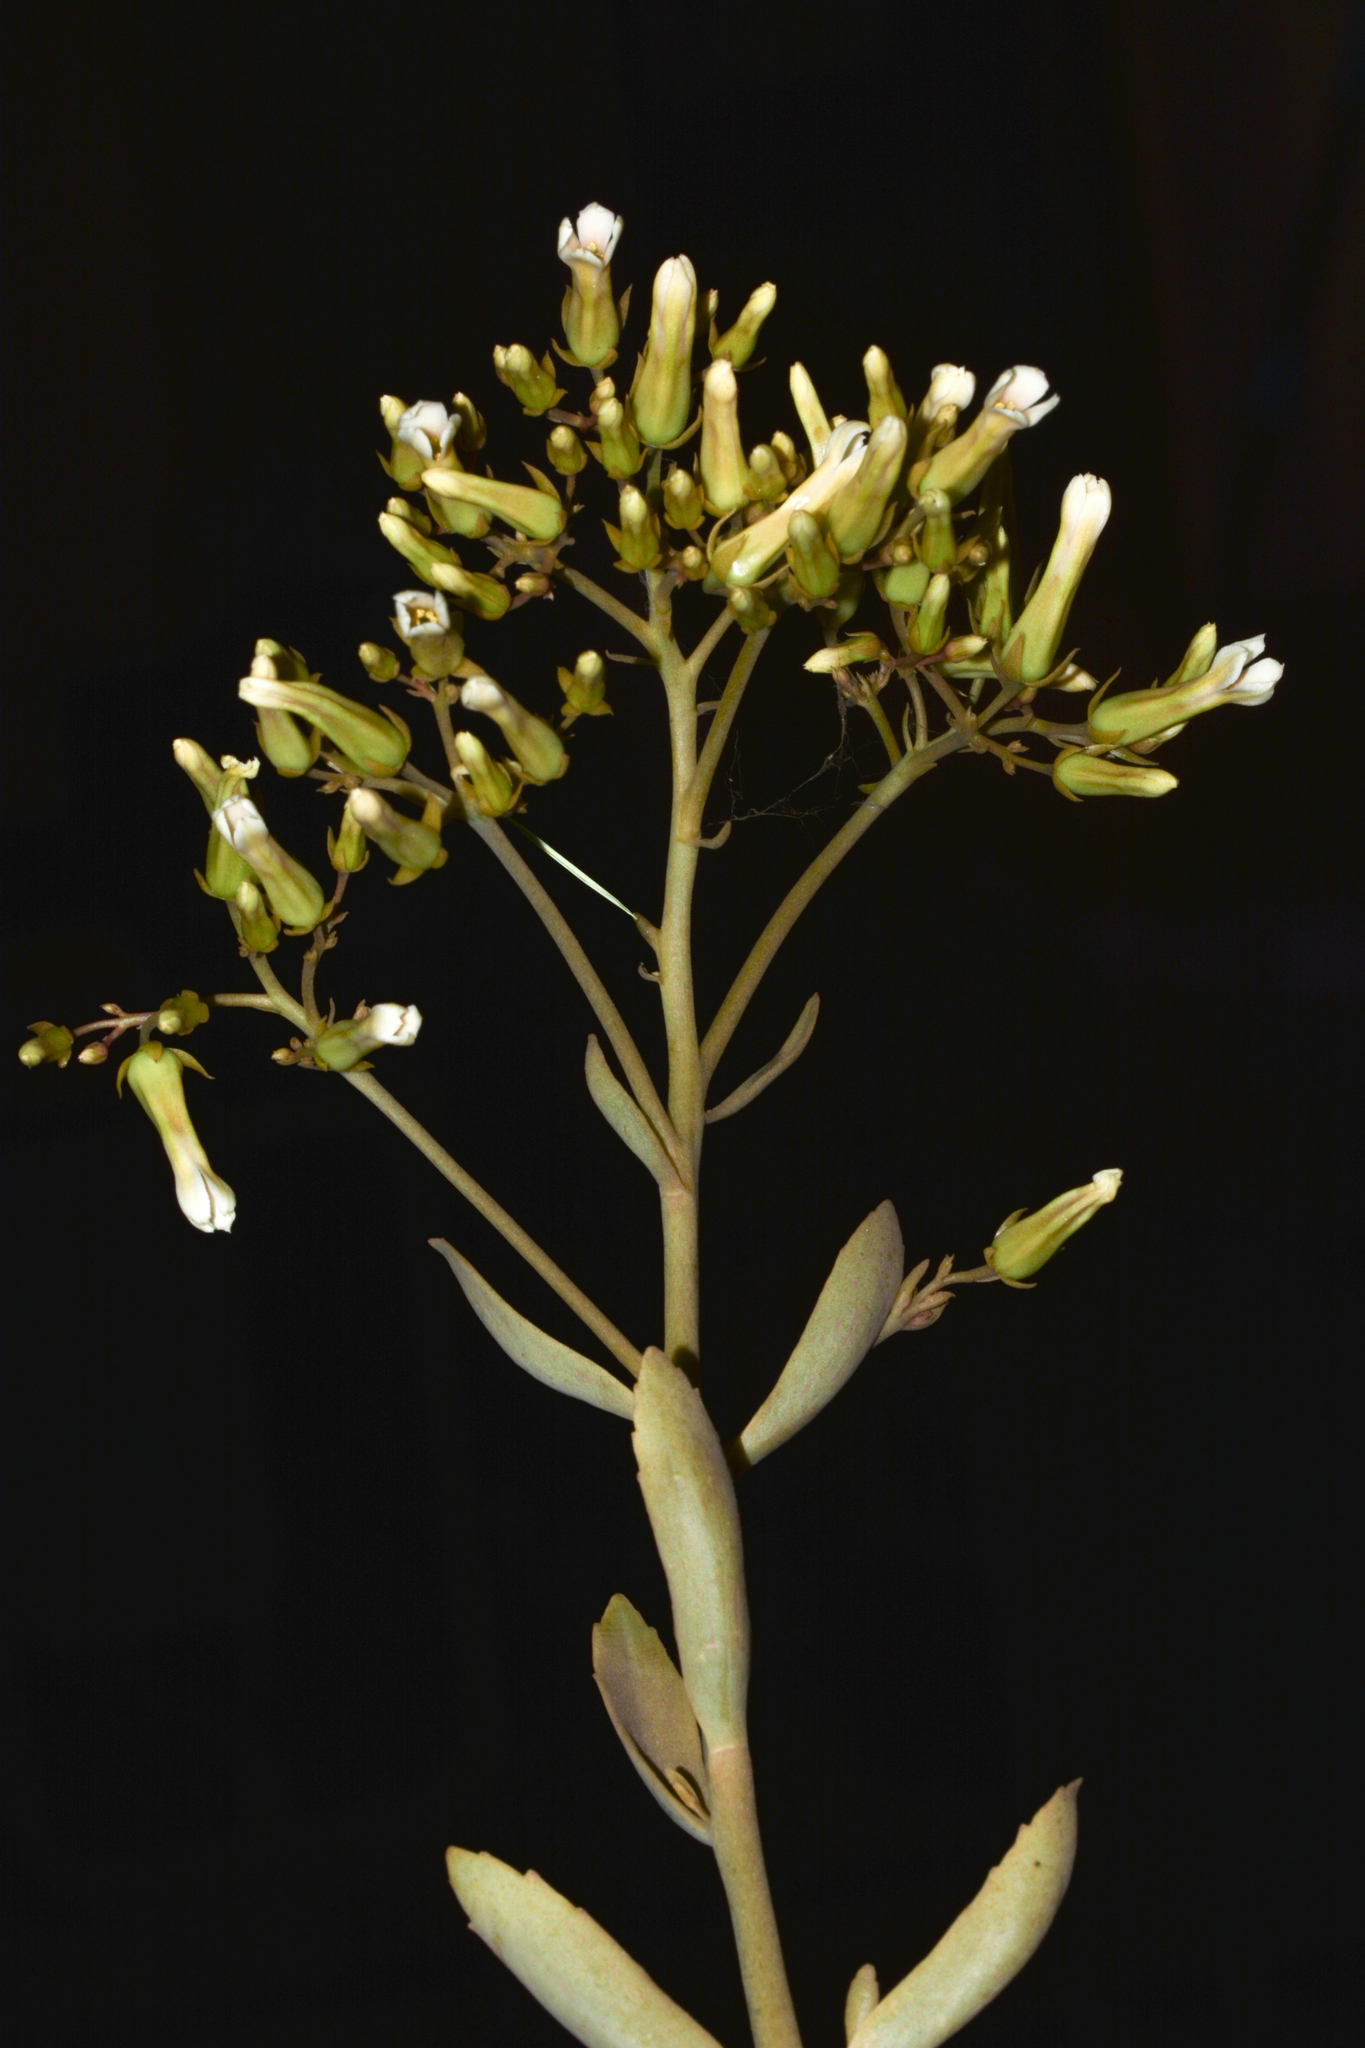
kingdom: Plantae
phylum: Tracheophyta
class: Magnoliopsida
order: Saxifragales
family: Crassulaceae
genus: Kalanchoe
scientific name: Kalanchoe bhidei
